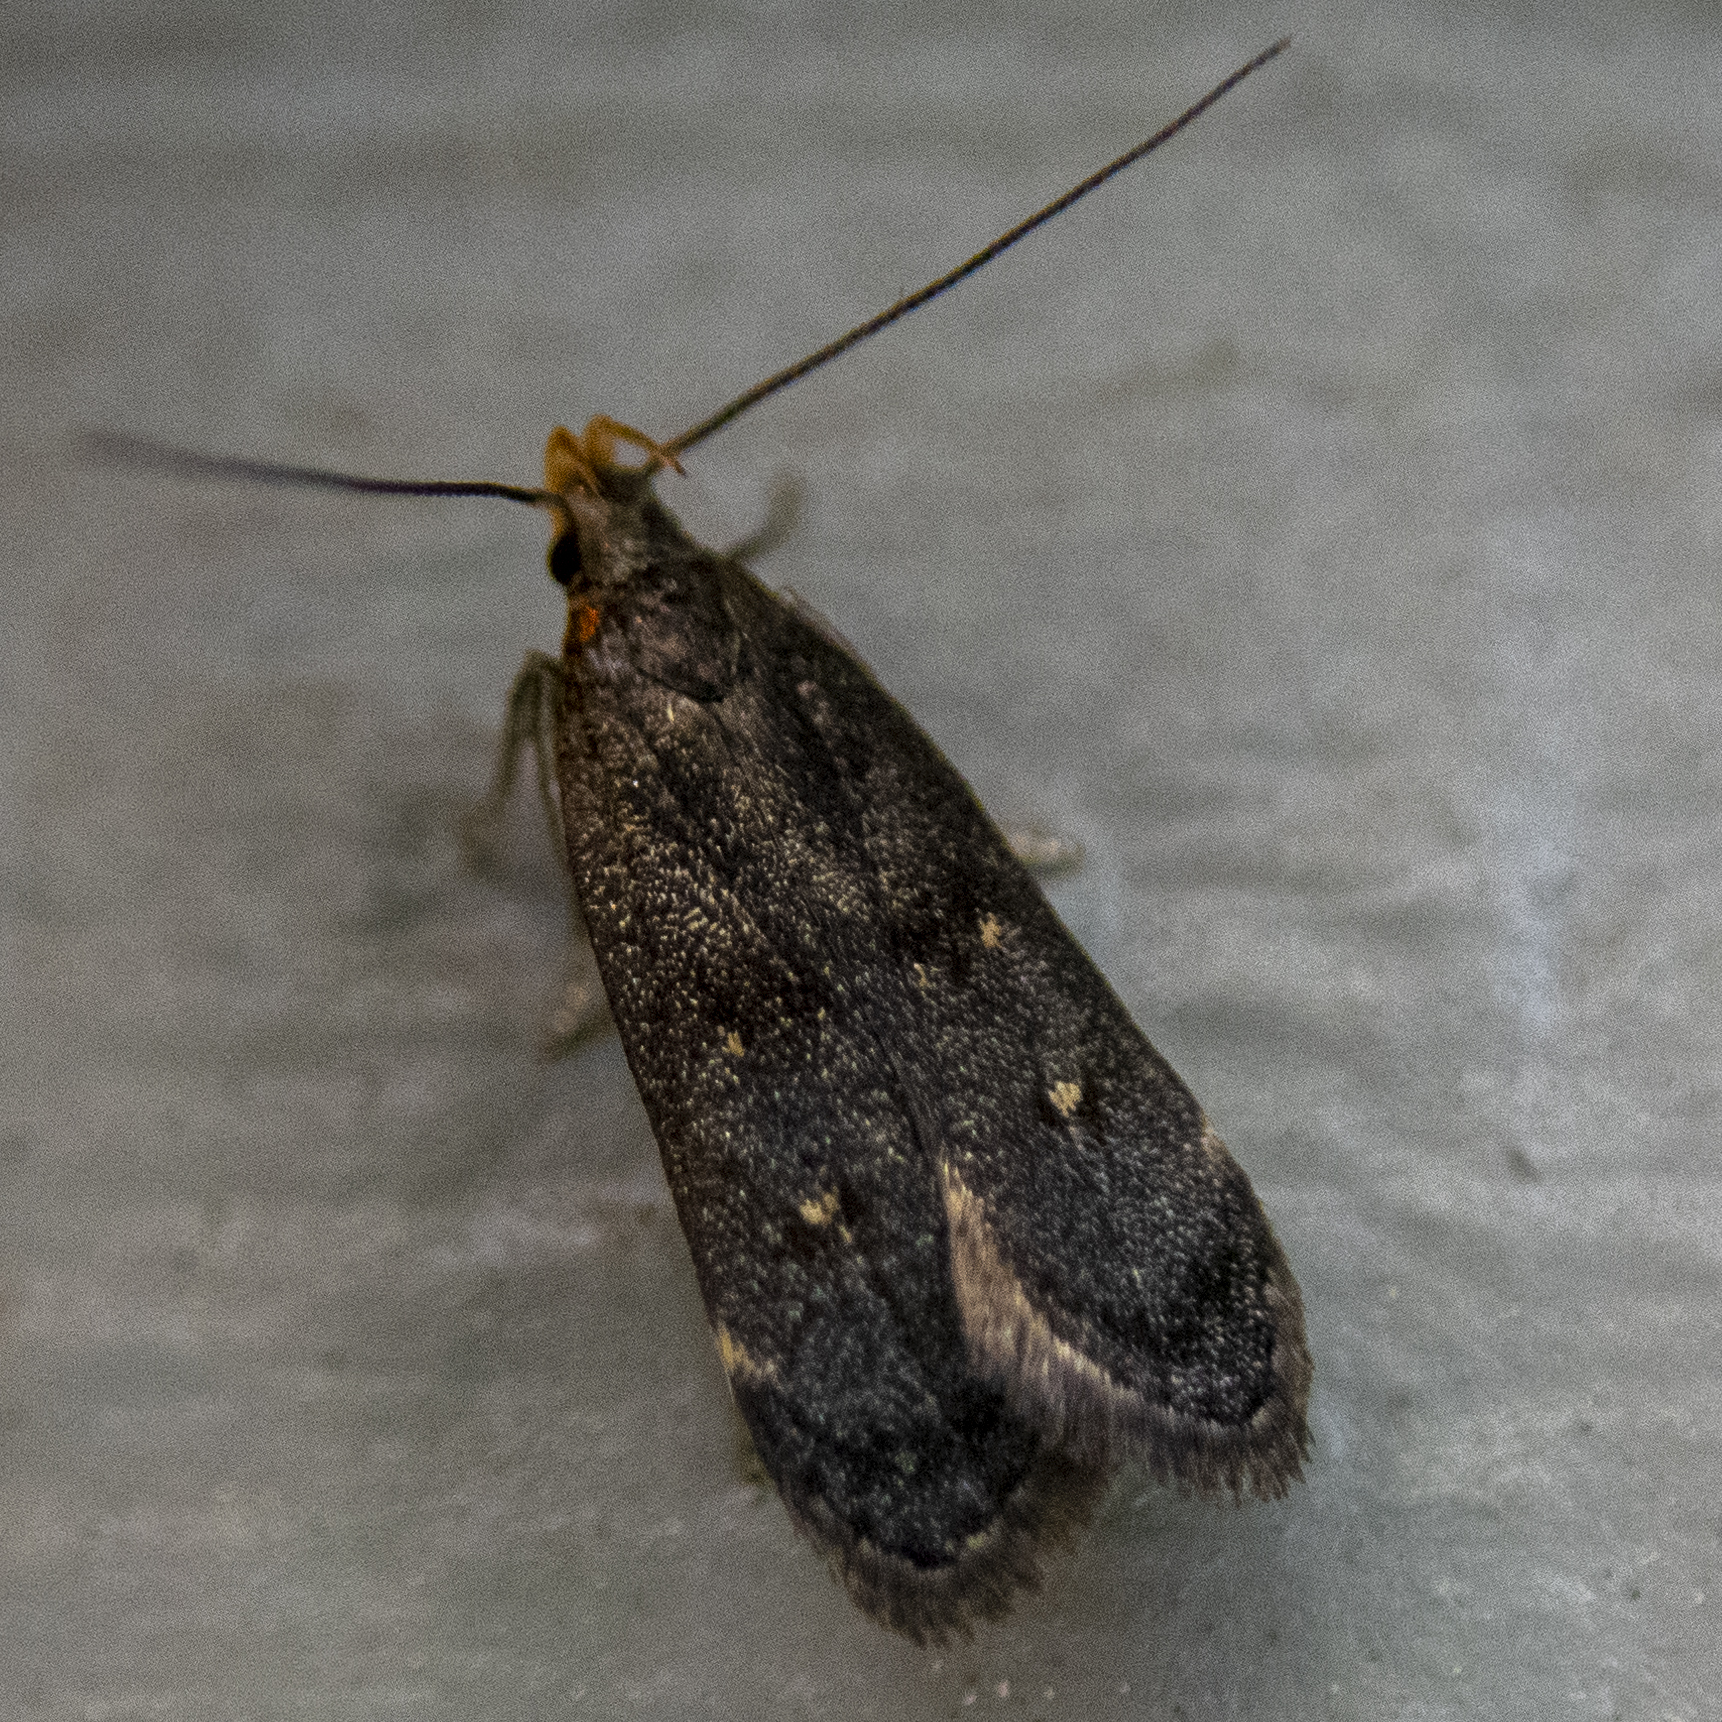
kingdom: Animalia
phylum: Arthropoda
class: Insecta
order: Lepidoptera
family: Gelechiidae
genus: Dichomeris
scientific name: Dichomeris juncidella
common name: Orange-dotted dichomeris moth
